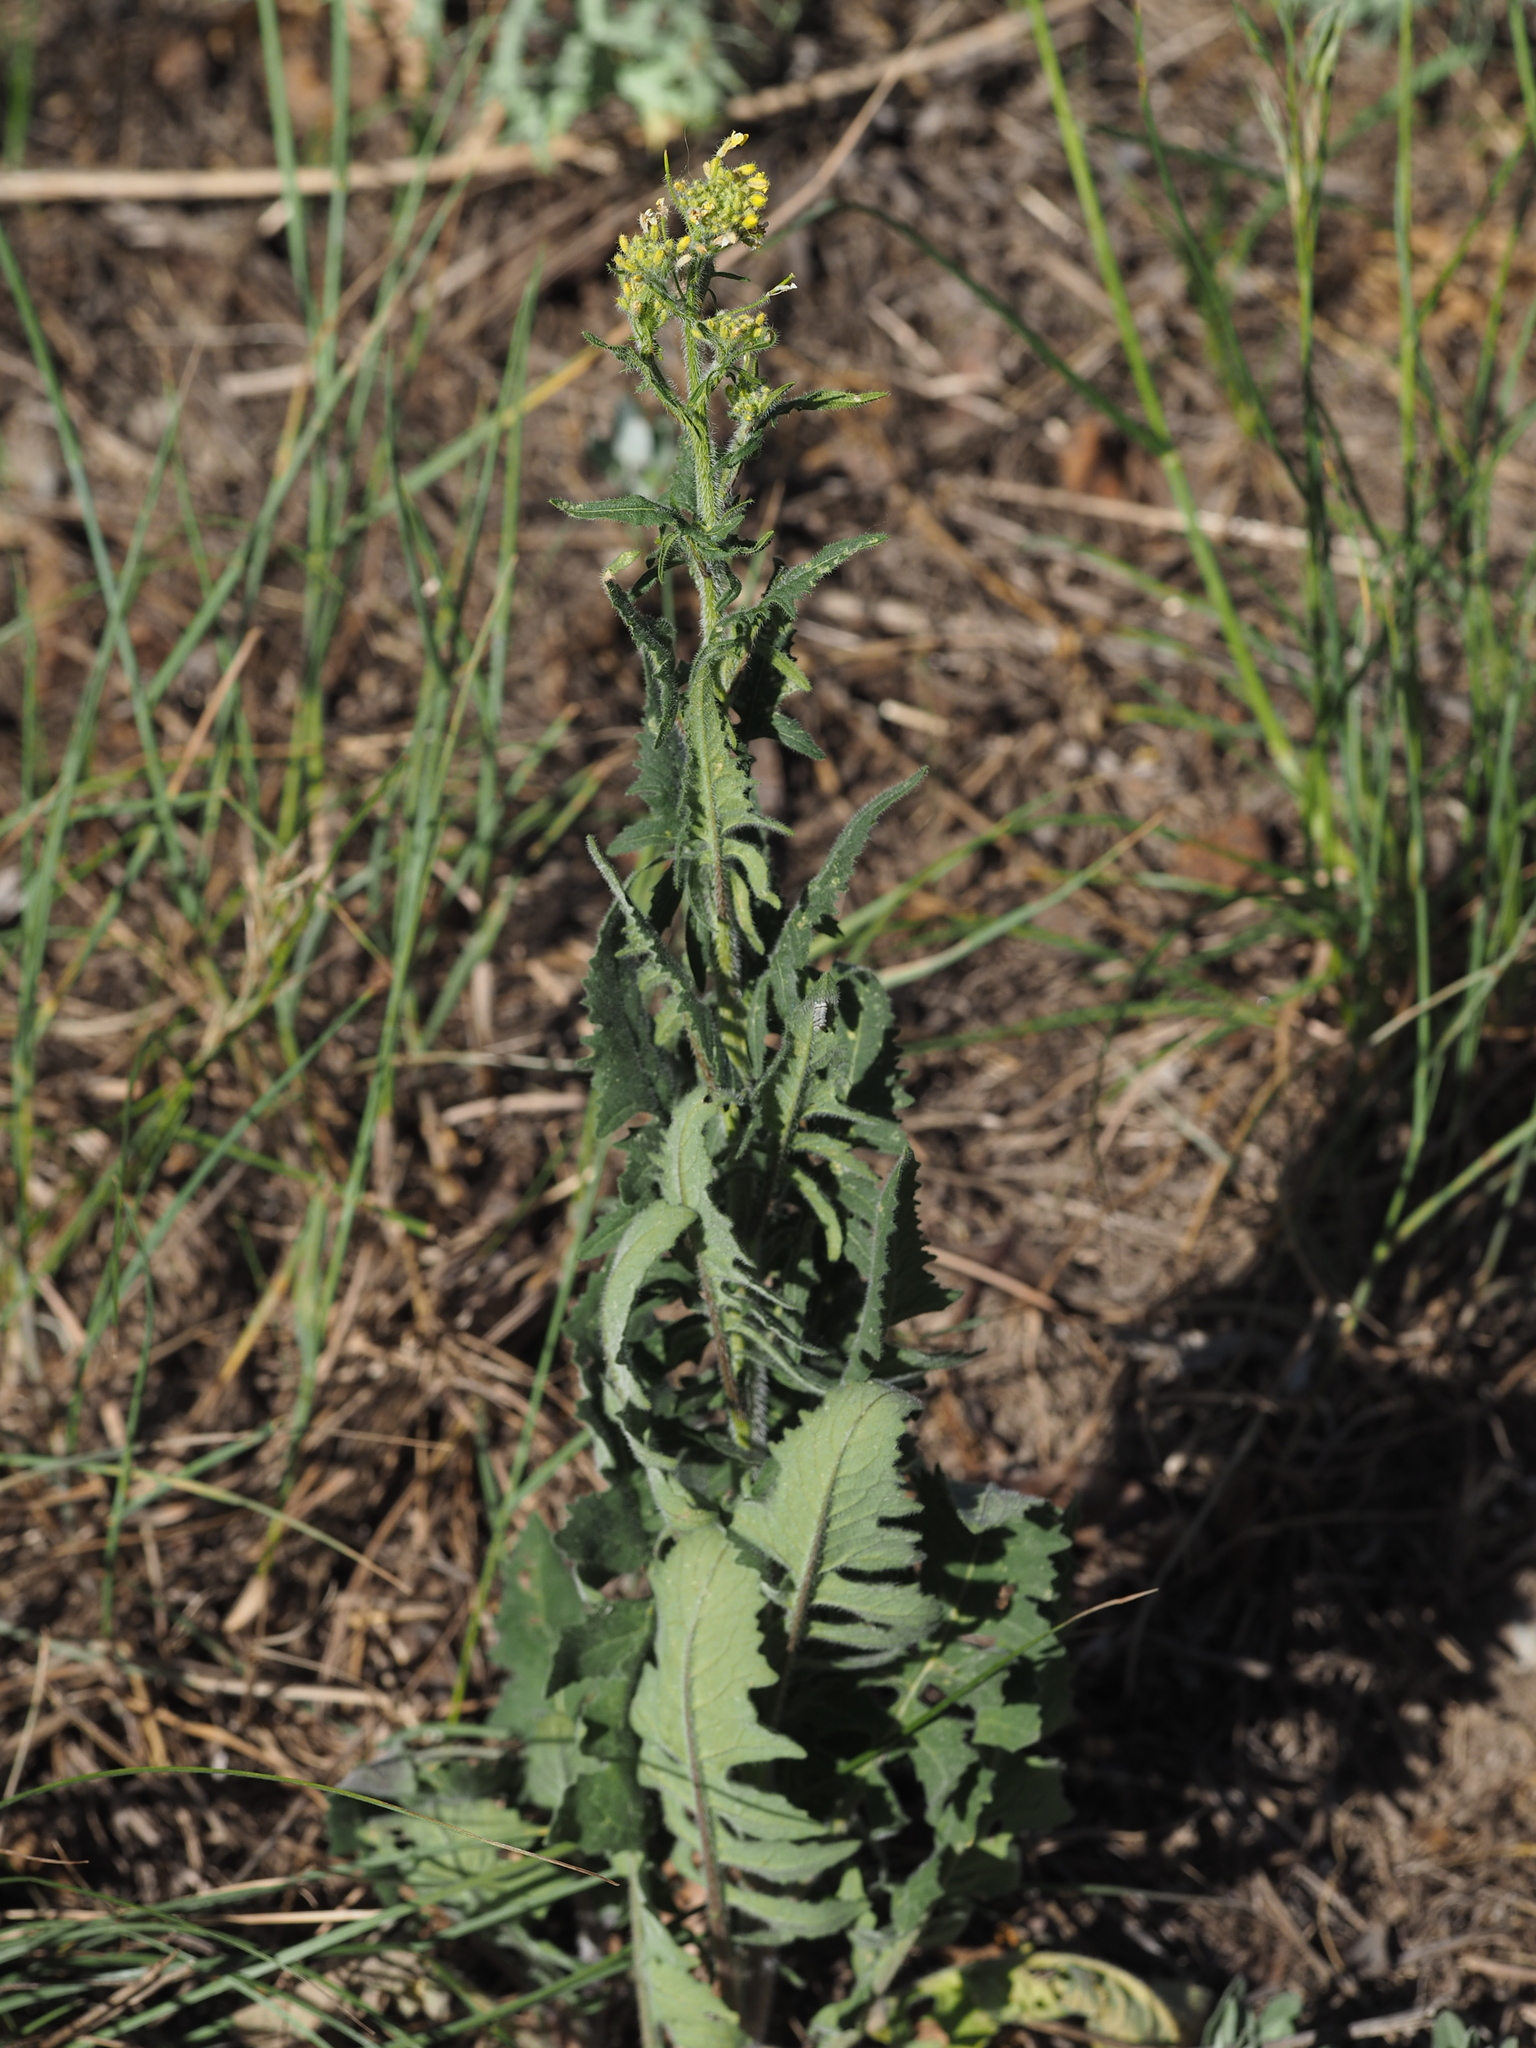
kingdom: Plantae
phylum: Tracheophyta
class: Magnoliopsida
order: Brassicales
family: Brassicaceae
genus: Sisymbrium
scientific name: Sisymbrium loeselii
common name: False london-rocket
